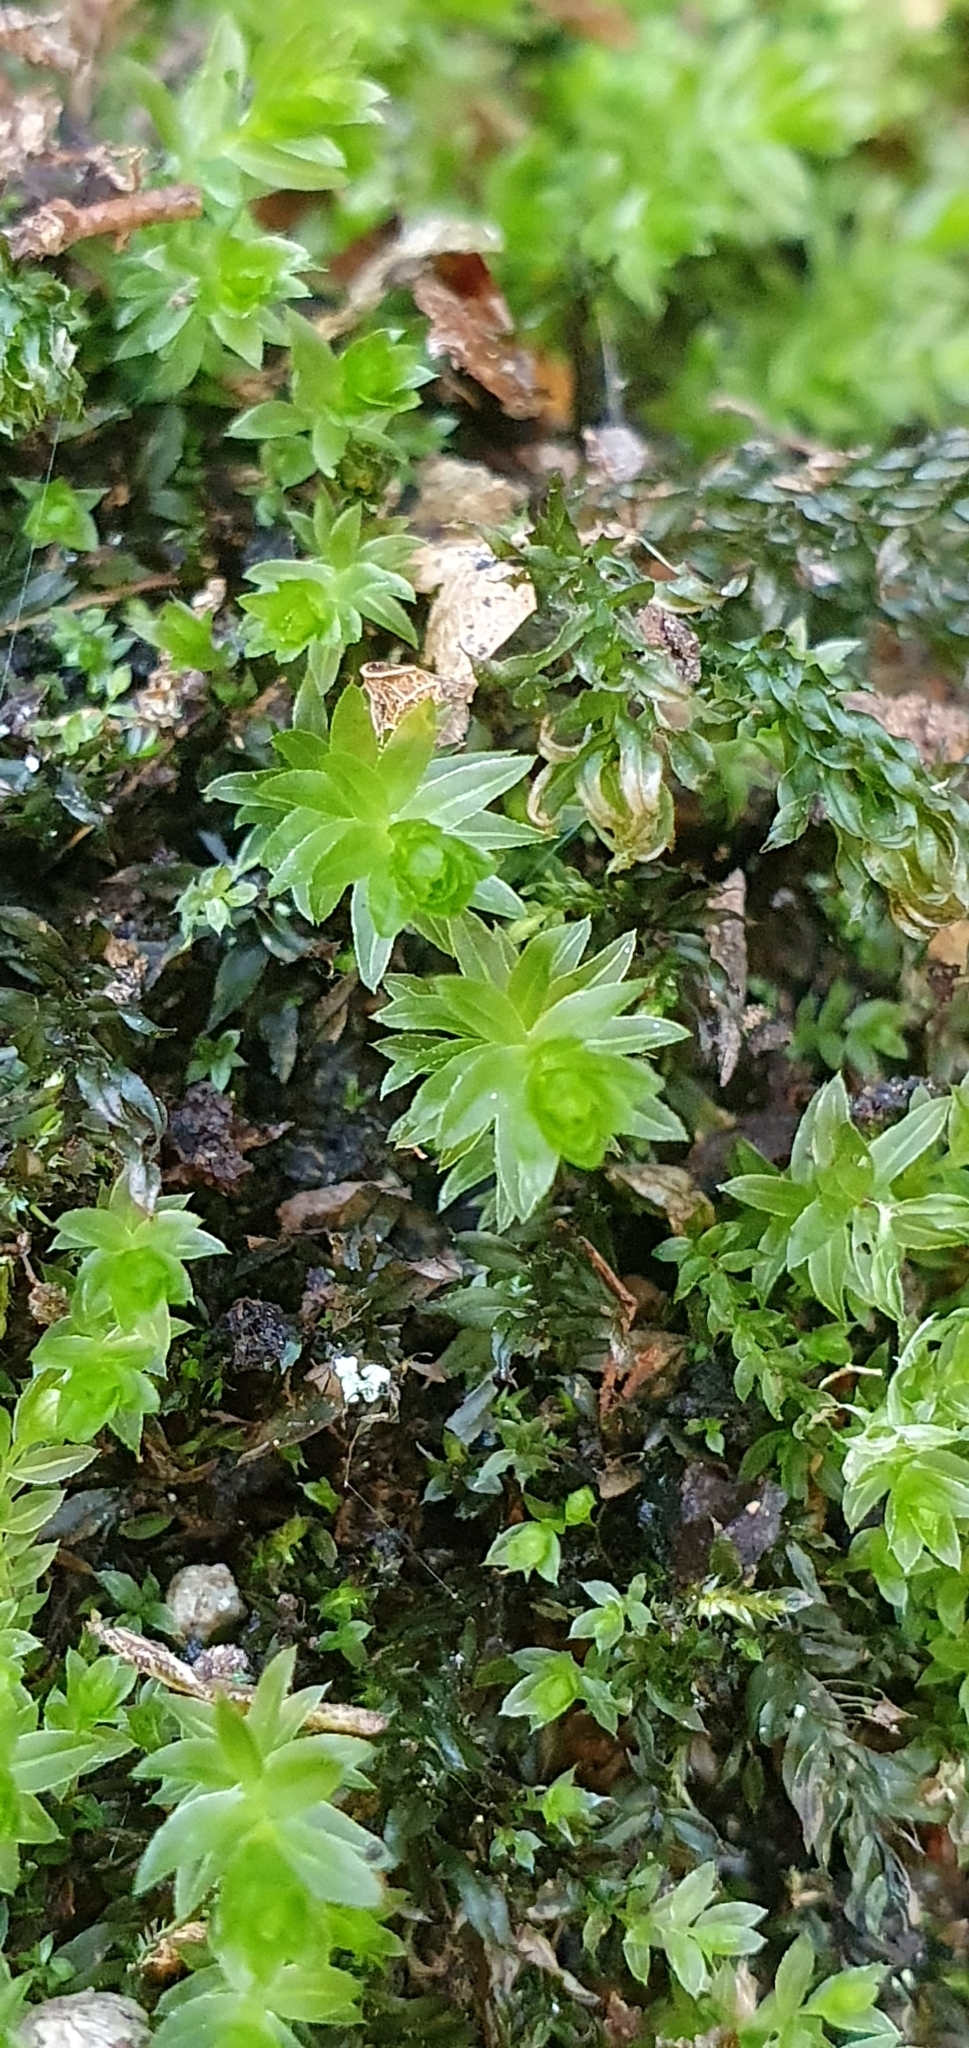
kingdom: Plantae
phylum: Bryophyta
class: Bryopsida
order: Bryales
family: Mniaceae
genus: Mnium
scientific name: Mnium hornum
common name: Swan's-neck leafy moss
